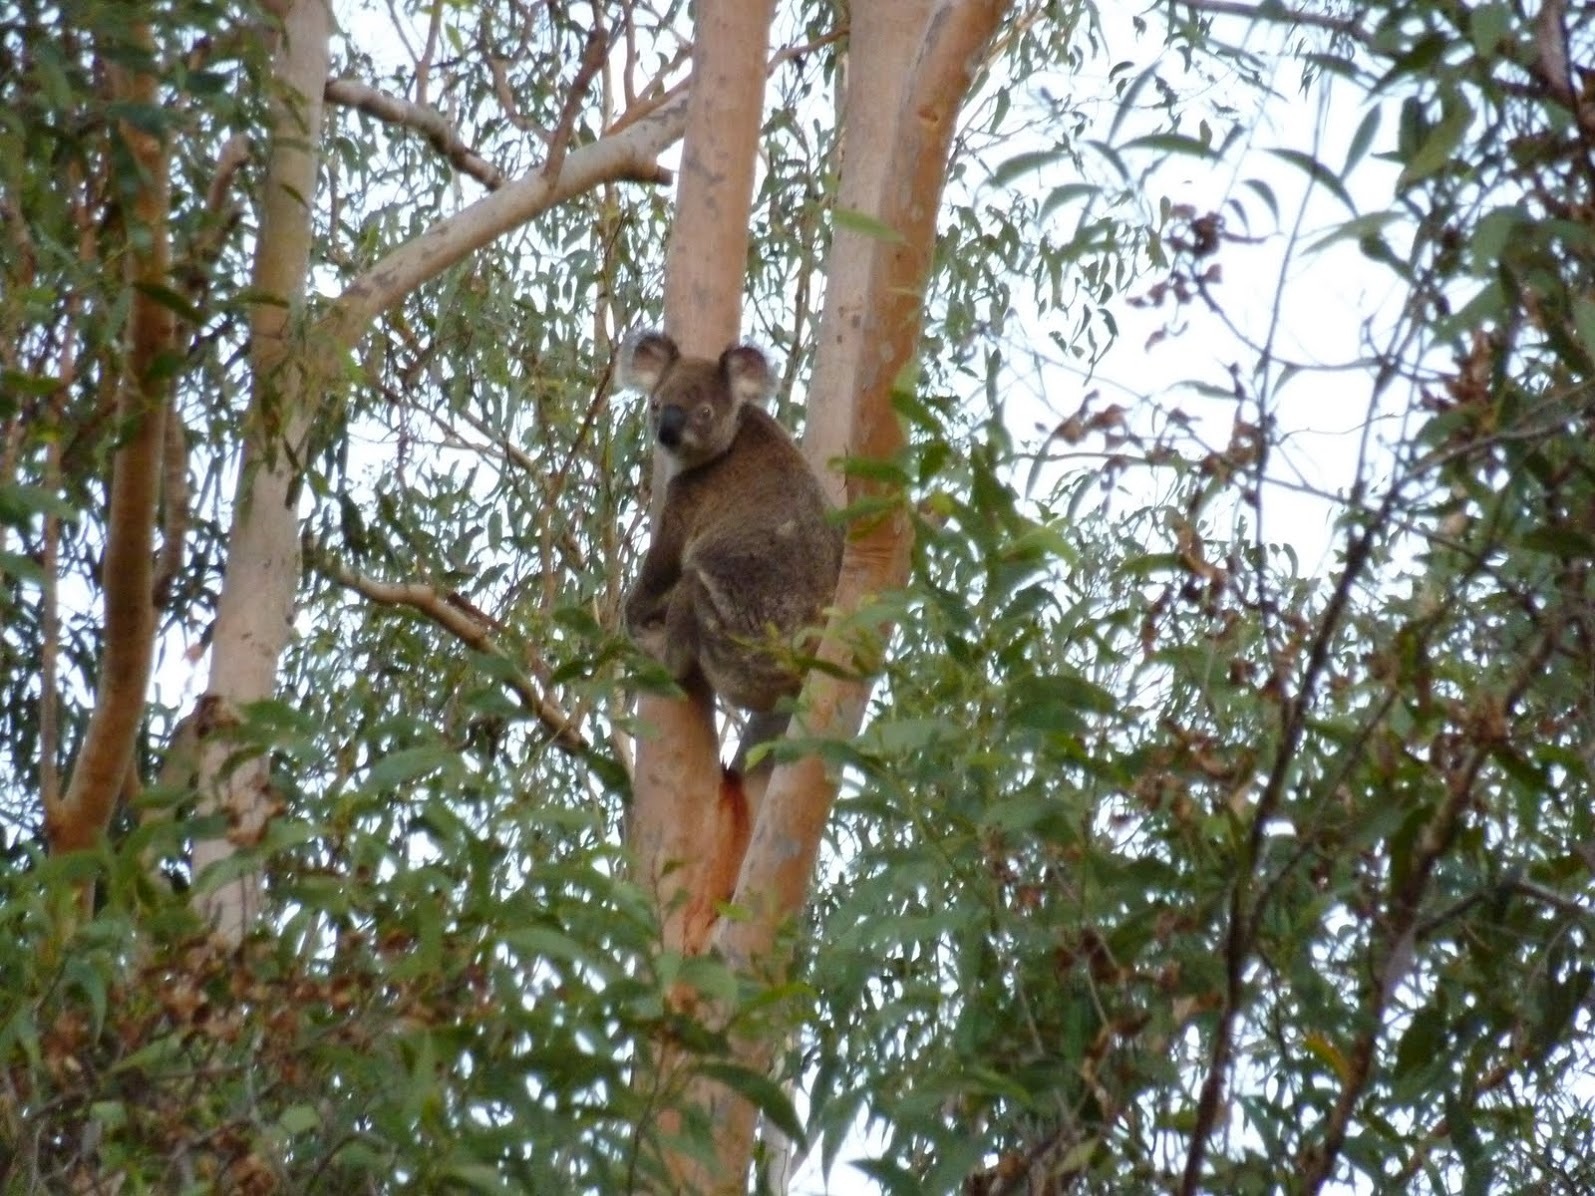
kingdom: Animalia
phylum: Chordata
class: Mammalia
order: Diprotodontia
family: Phascolarctidae
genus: Phascolarctos
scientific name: Phascolarctos cinereus
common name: Koala
